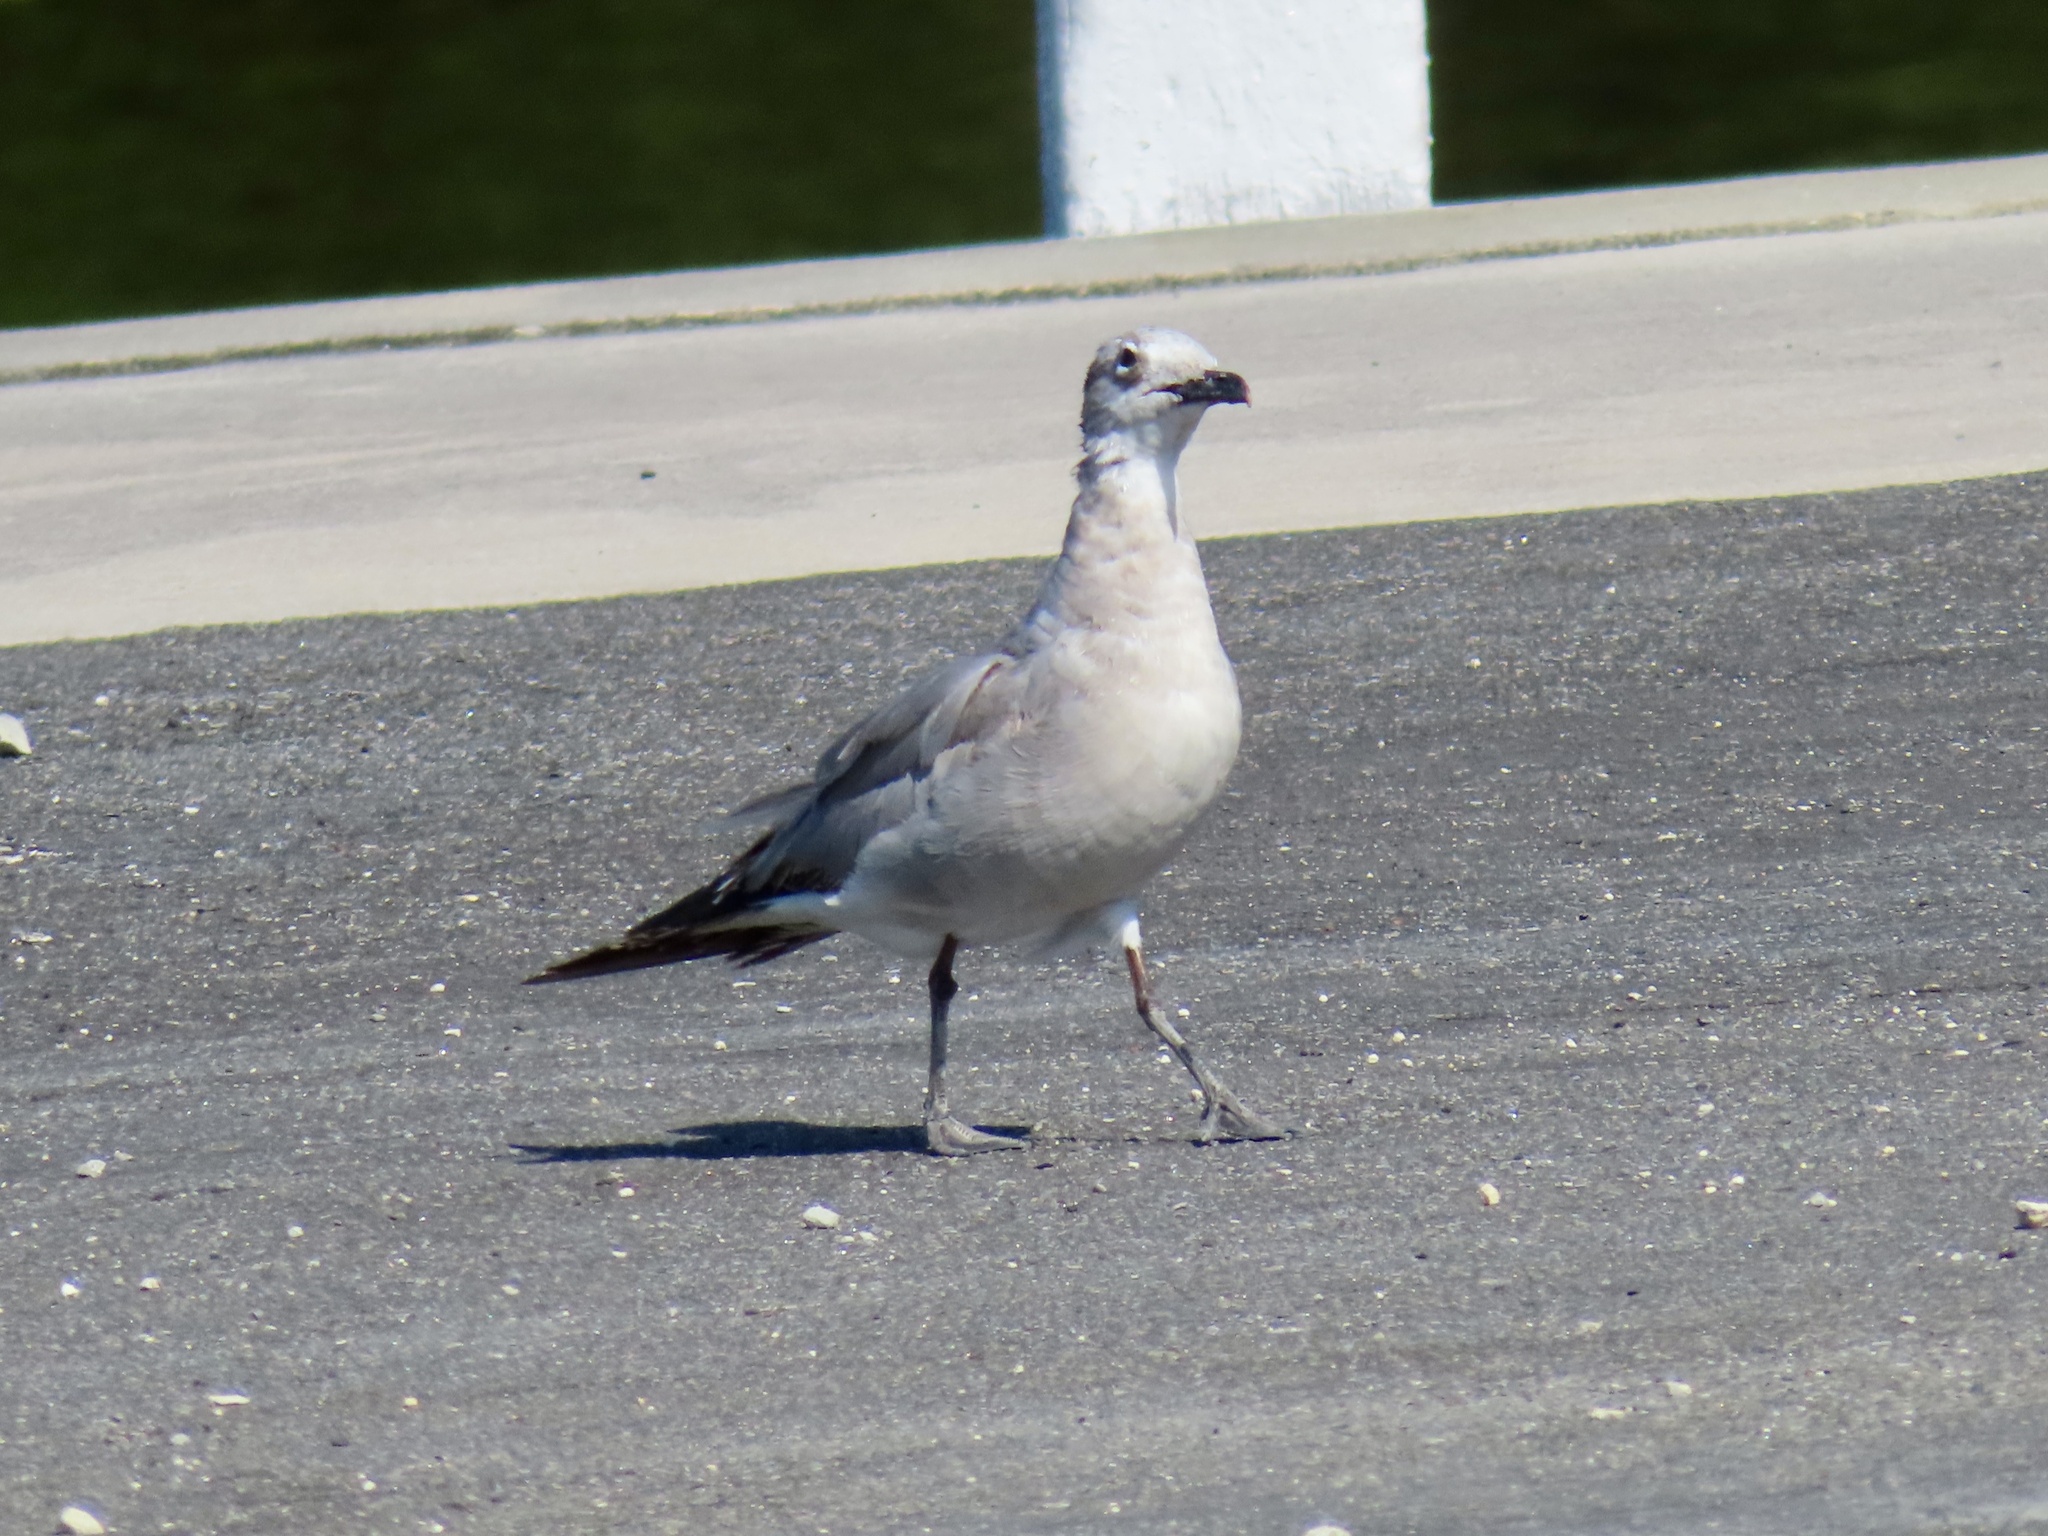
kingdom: Animalia
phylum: Chordata
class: Aves
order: Charadriiformes
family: Laridae
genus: Leucophaeus
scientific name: Leucophaeus atricilla
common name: Laughing gull
